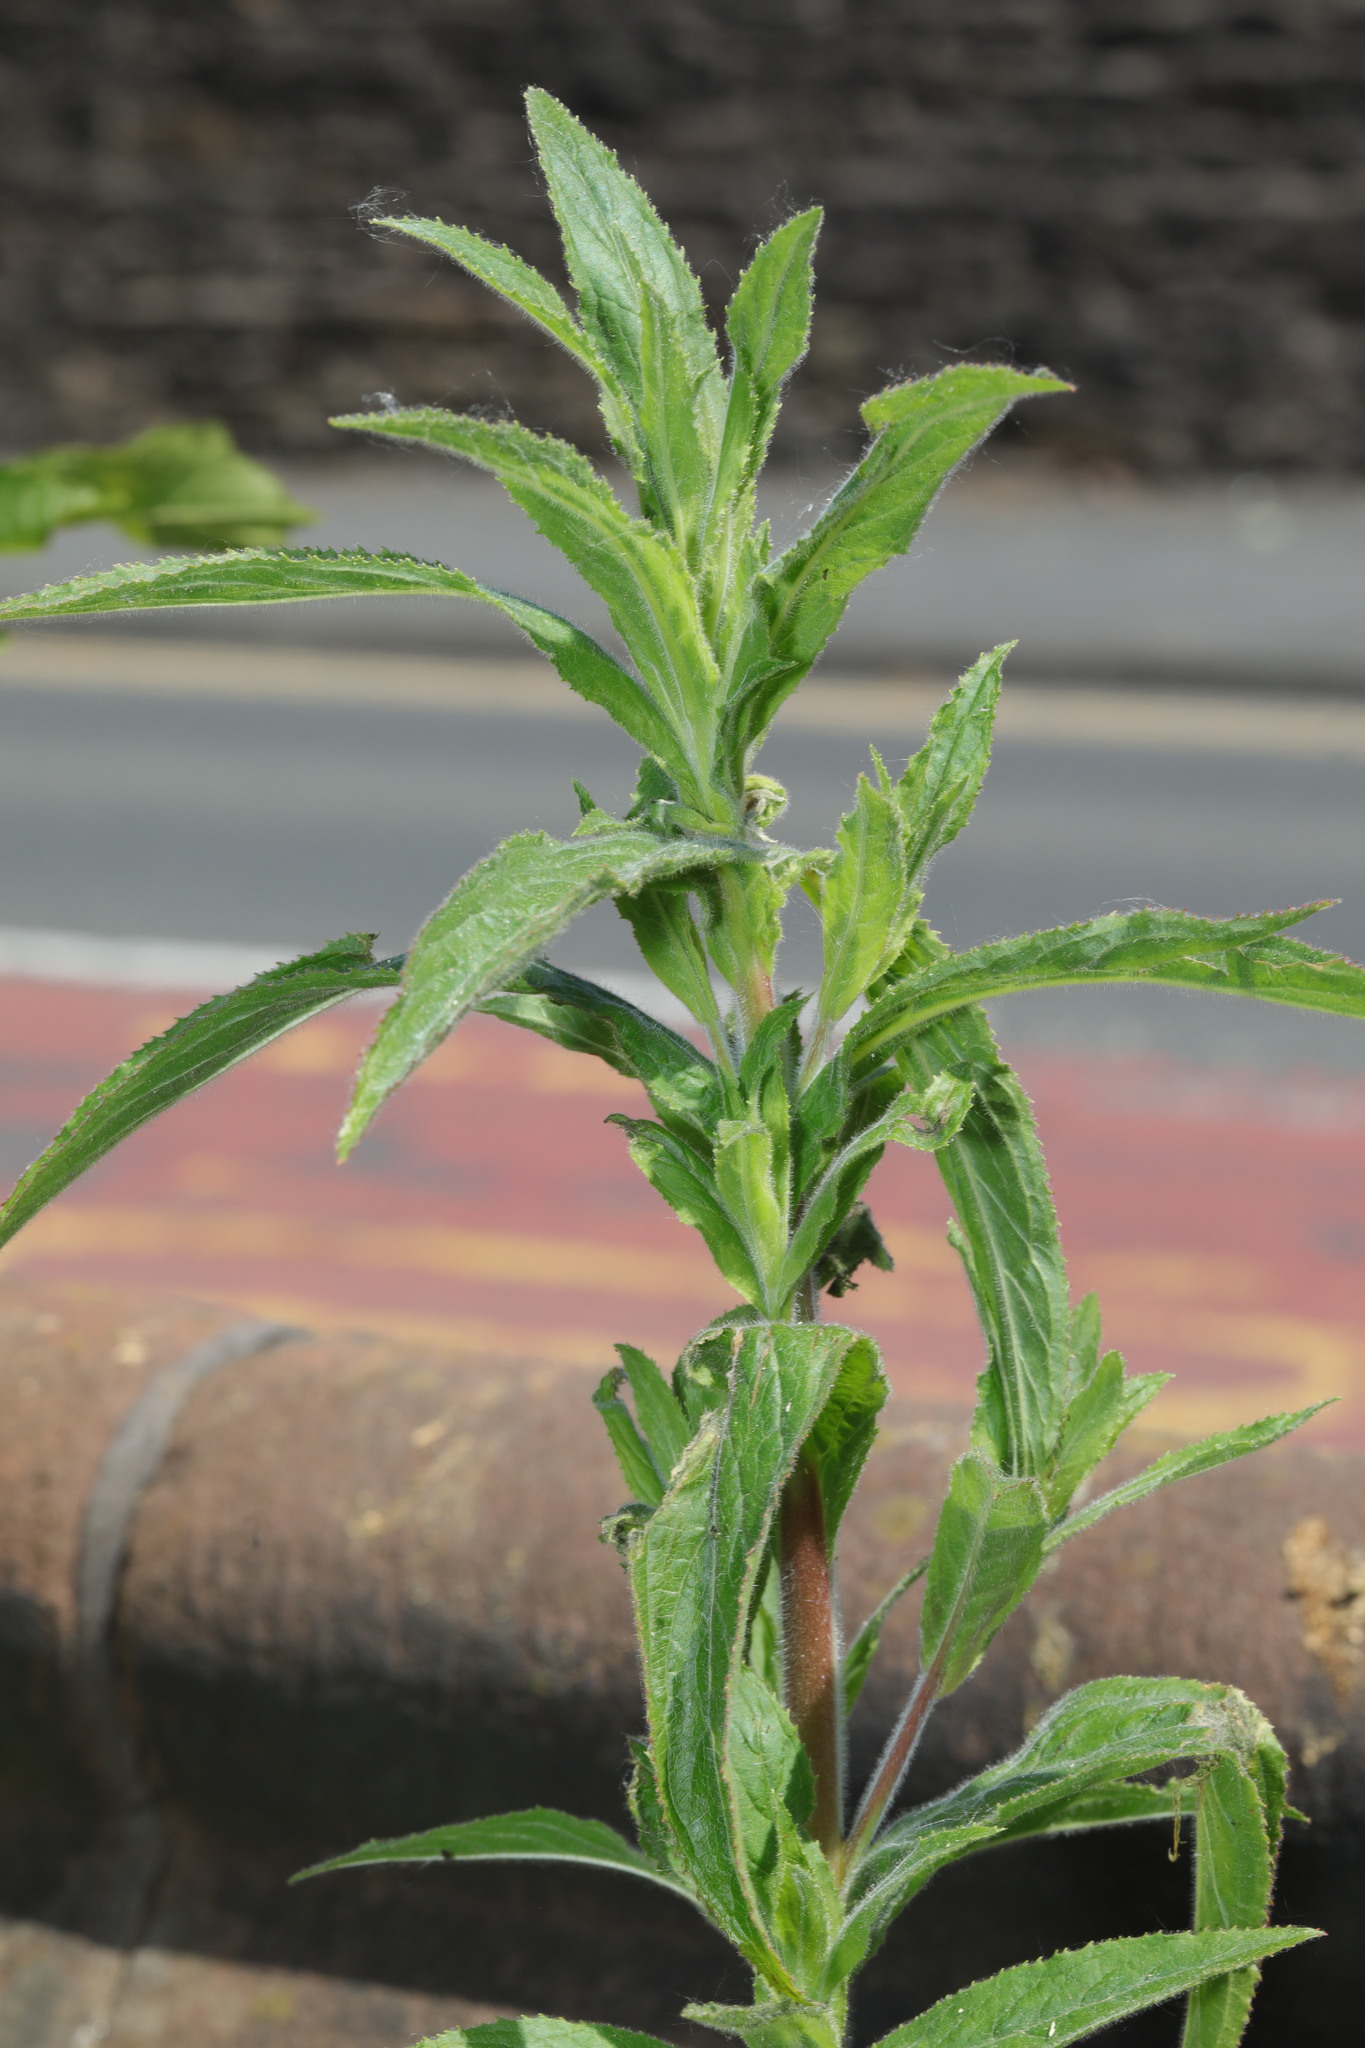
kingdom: Plantae
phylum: Tracheophyta
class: Magnoliopsida
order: Myrtales
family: Onagraceae
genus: Epilobium
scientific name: Epilobium hirsutum
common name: Great willowherb
